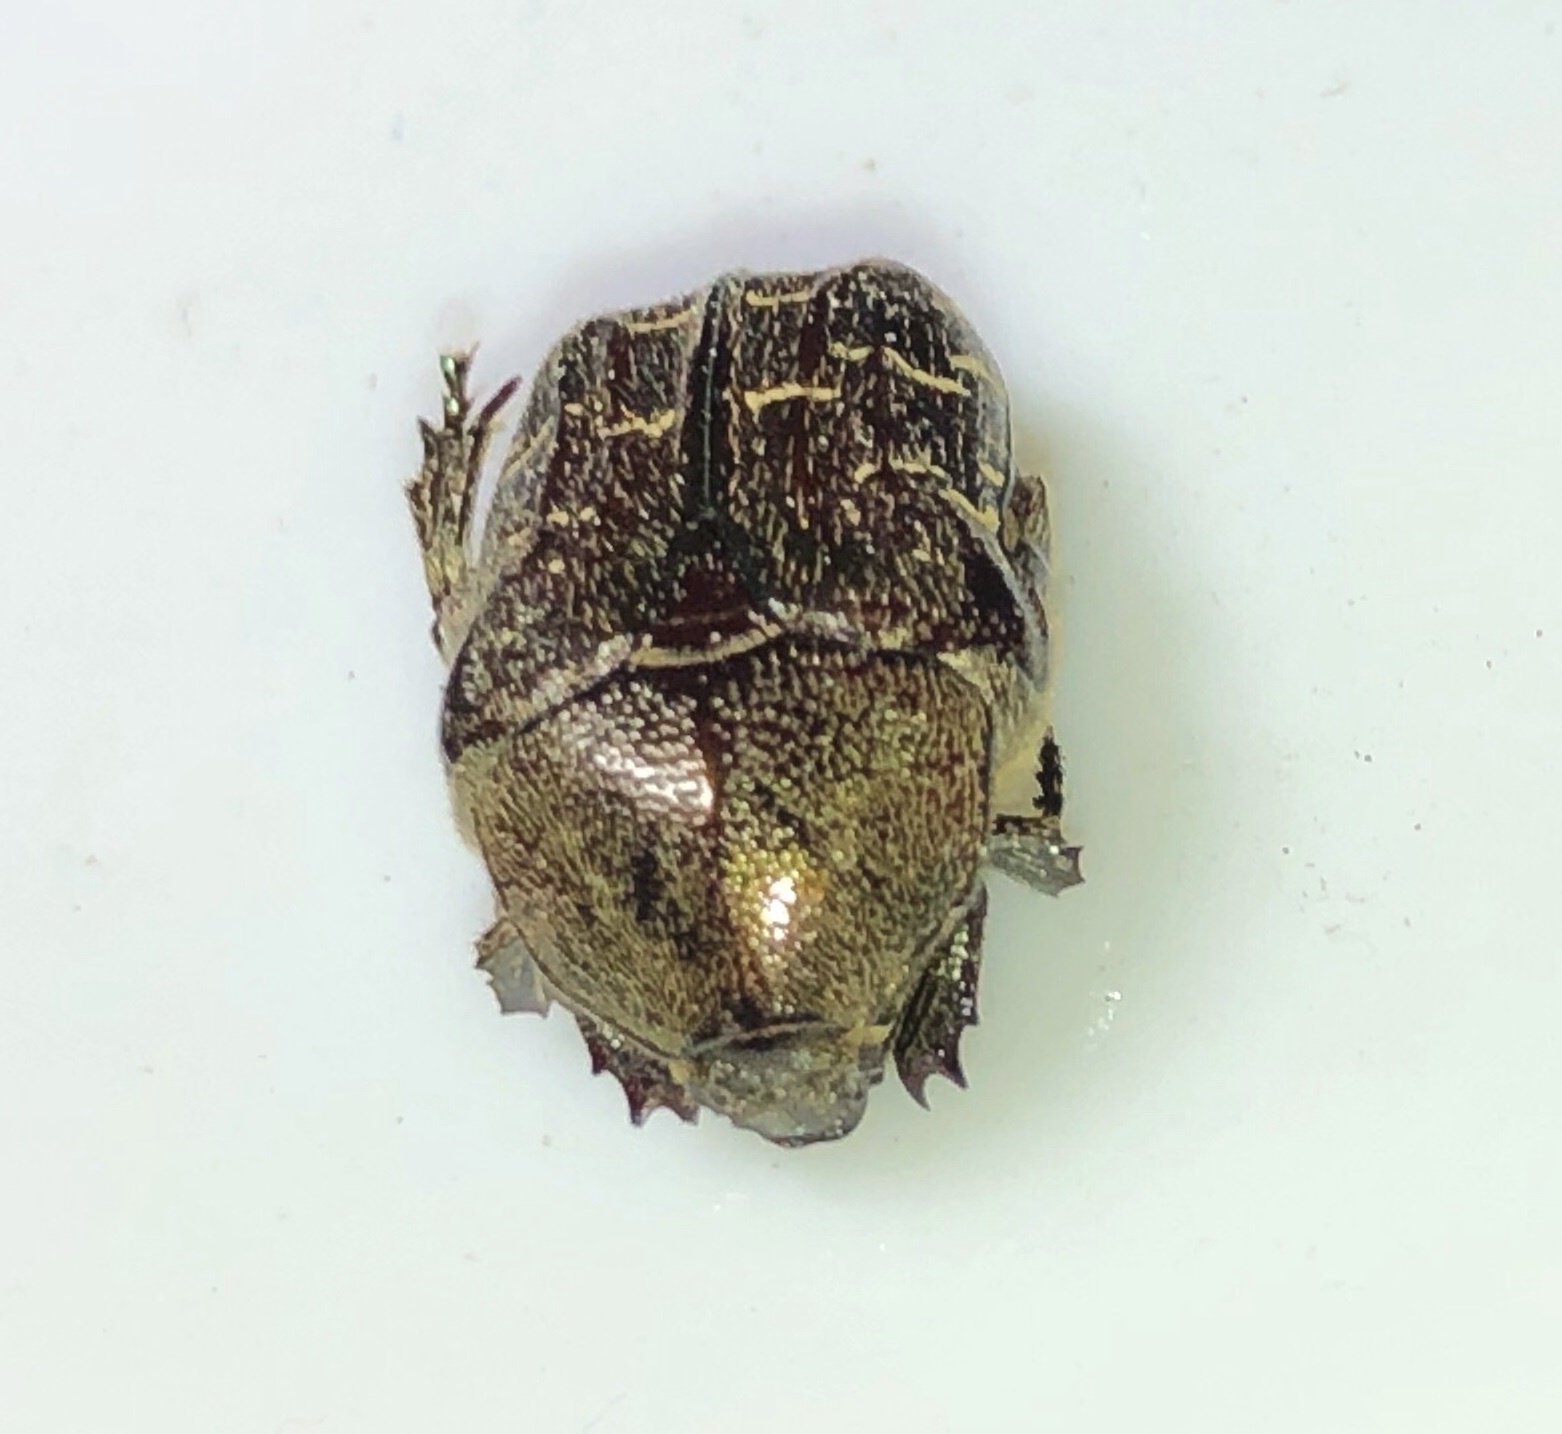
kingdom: Animalia
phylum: Arthropoda
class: Insecta
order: Coleoptera
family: Scarabaeidae
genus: Euphoria
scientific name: Euphoria sepulcralis
